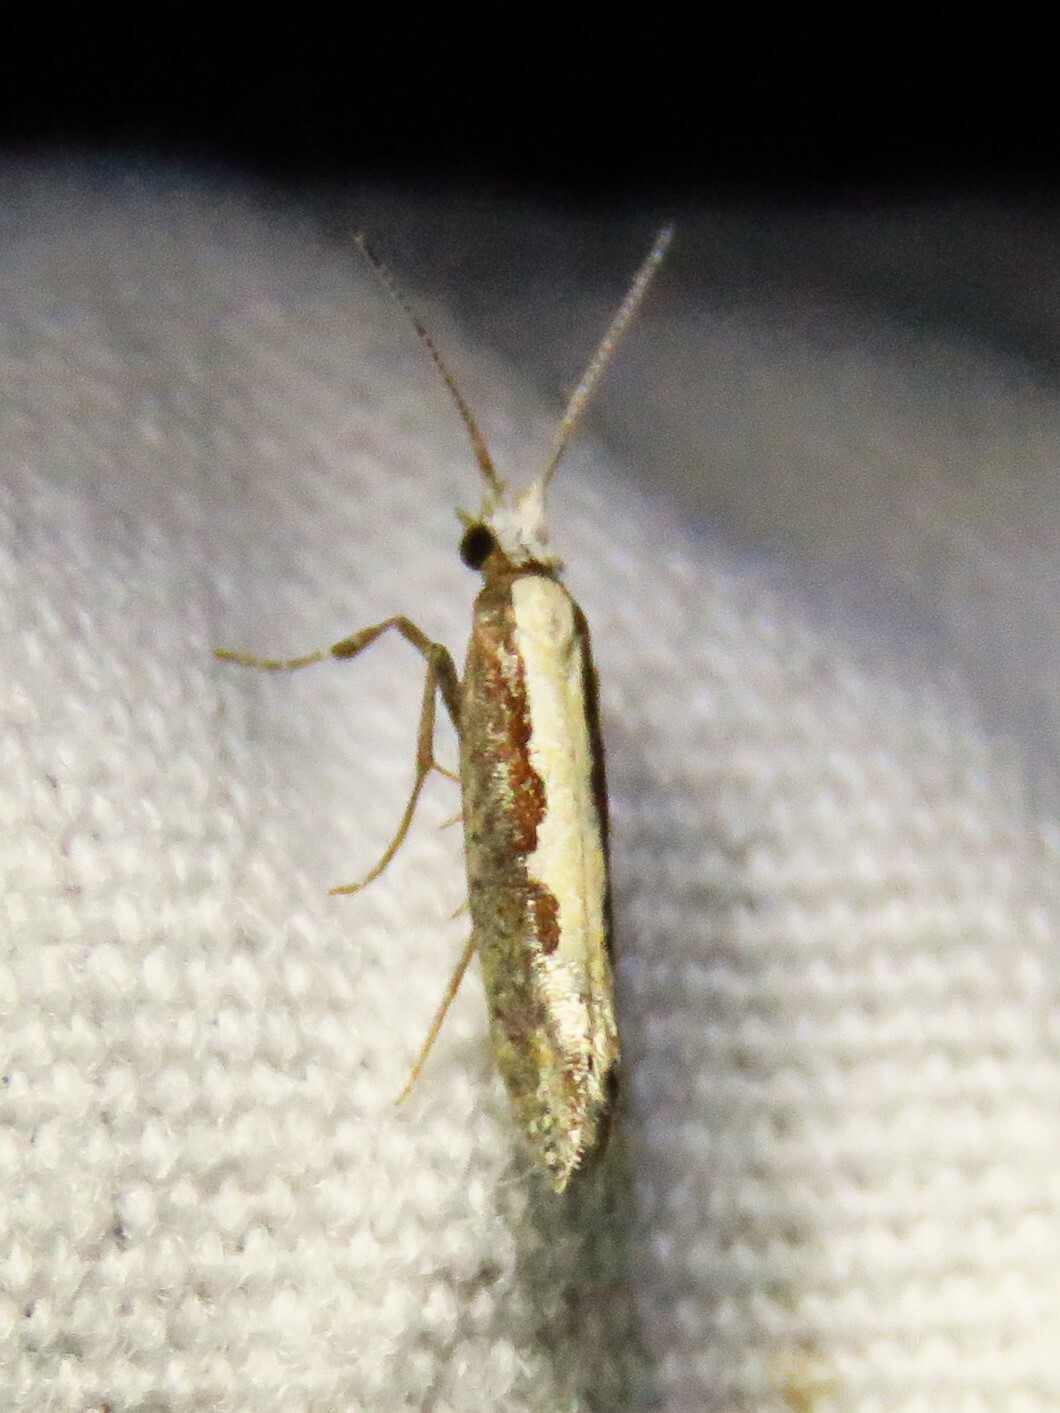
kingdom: Animalia
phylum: Arthropoda
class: Insecta
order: Lepidoptera
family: Plutellidae
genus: Plutella
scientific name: Plutella xylostella
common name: Diamond-back moth
